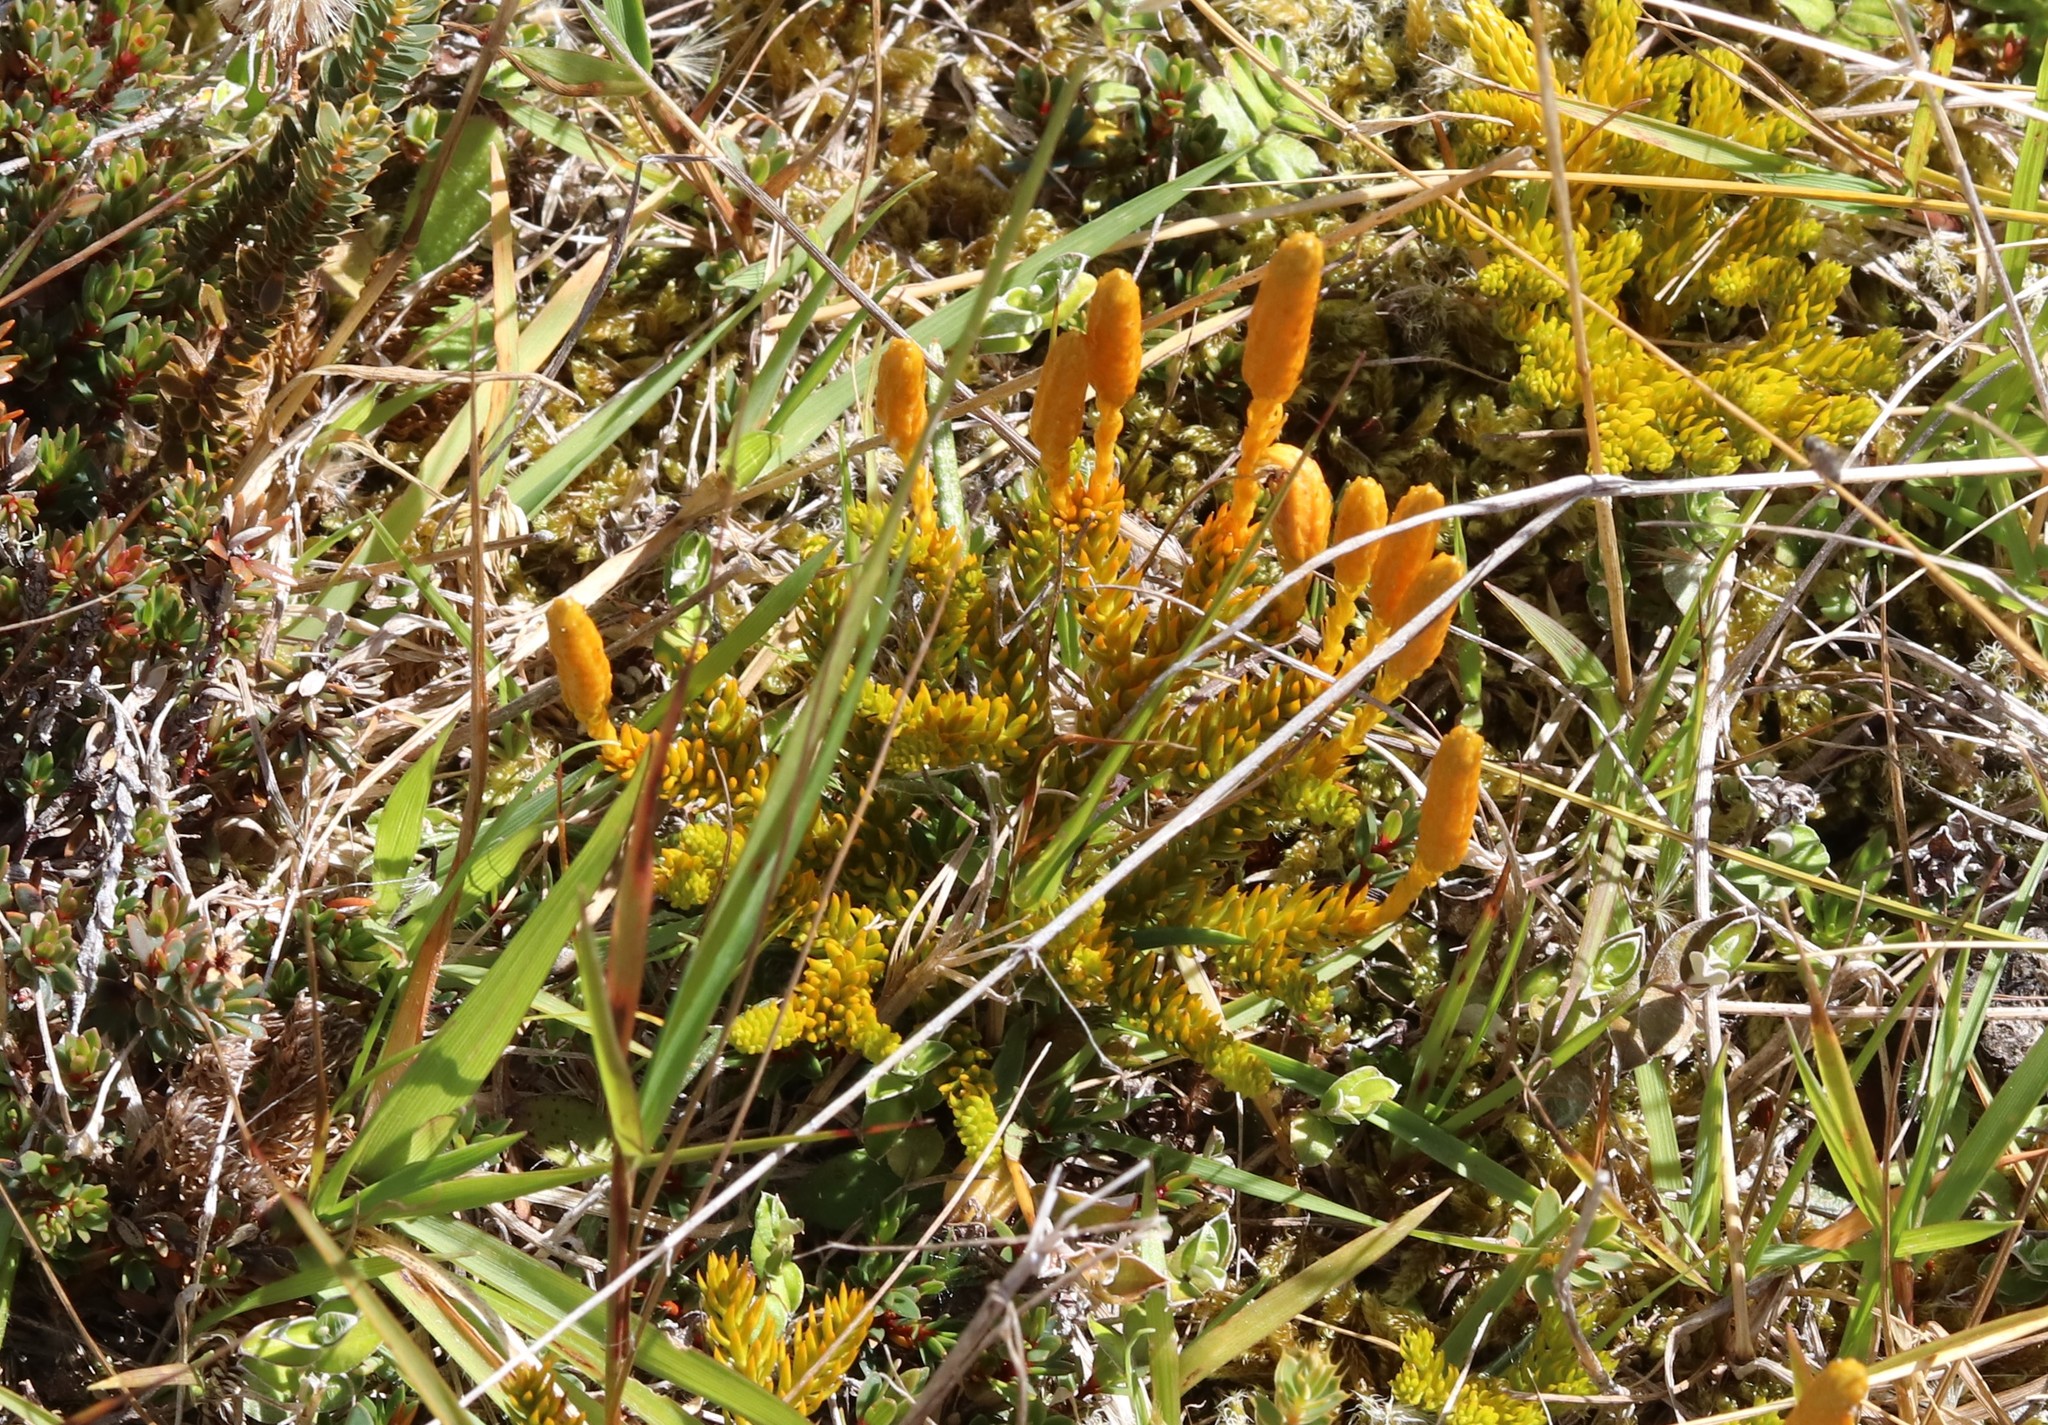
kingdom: Plantae
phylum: Tracheophyta
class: Lycopodiopsida
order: Lycopodiales
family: Lycopodiaceae
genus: Austrolycopodium
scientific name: Austrolycopodium fastigiatum
